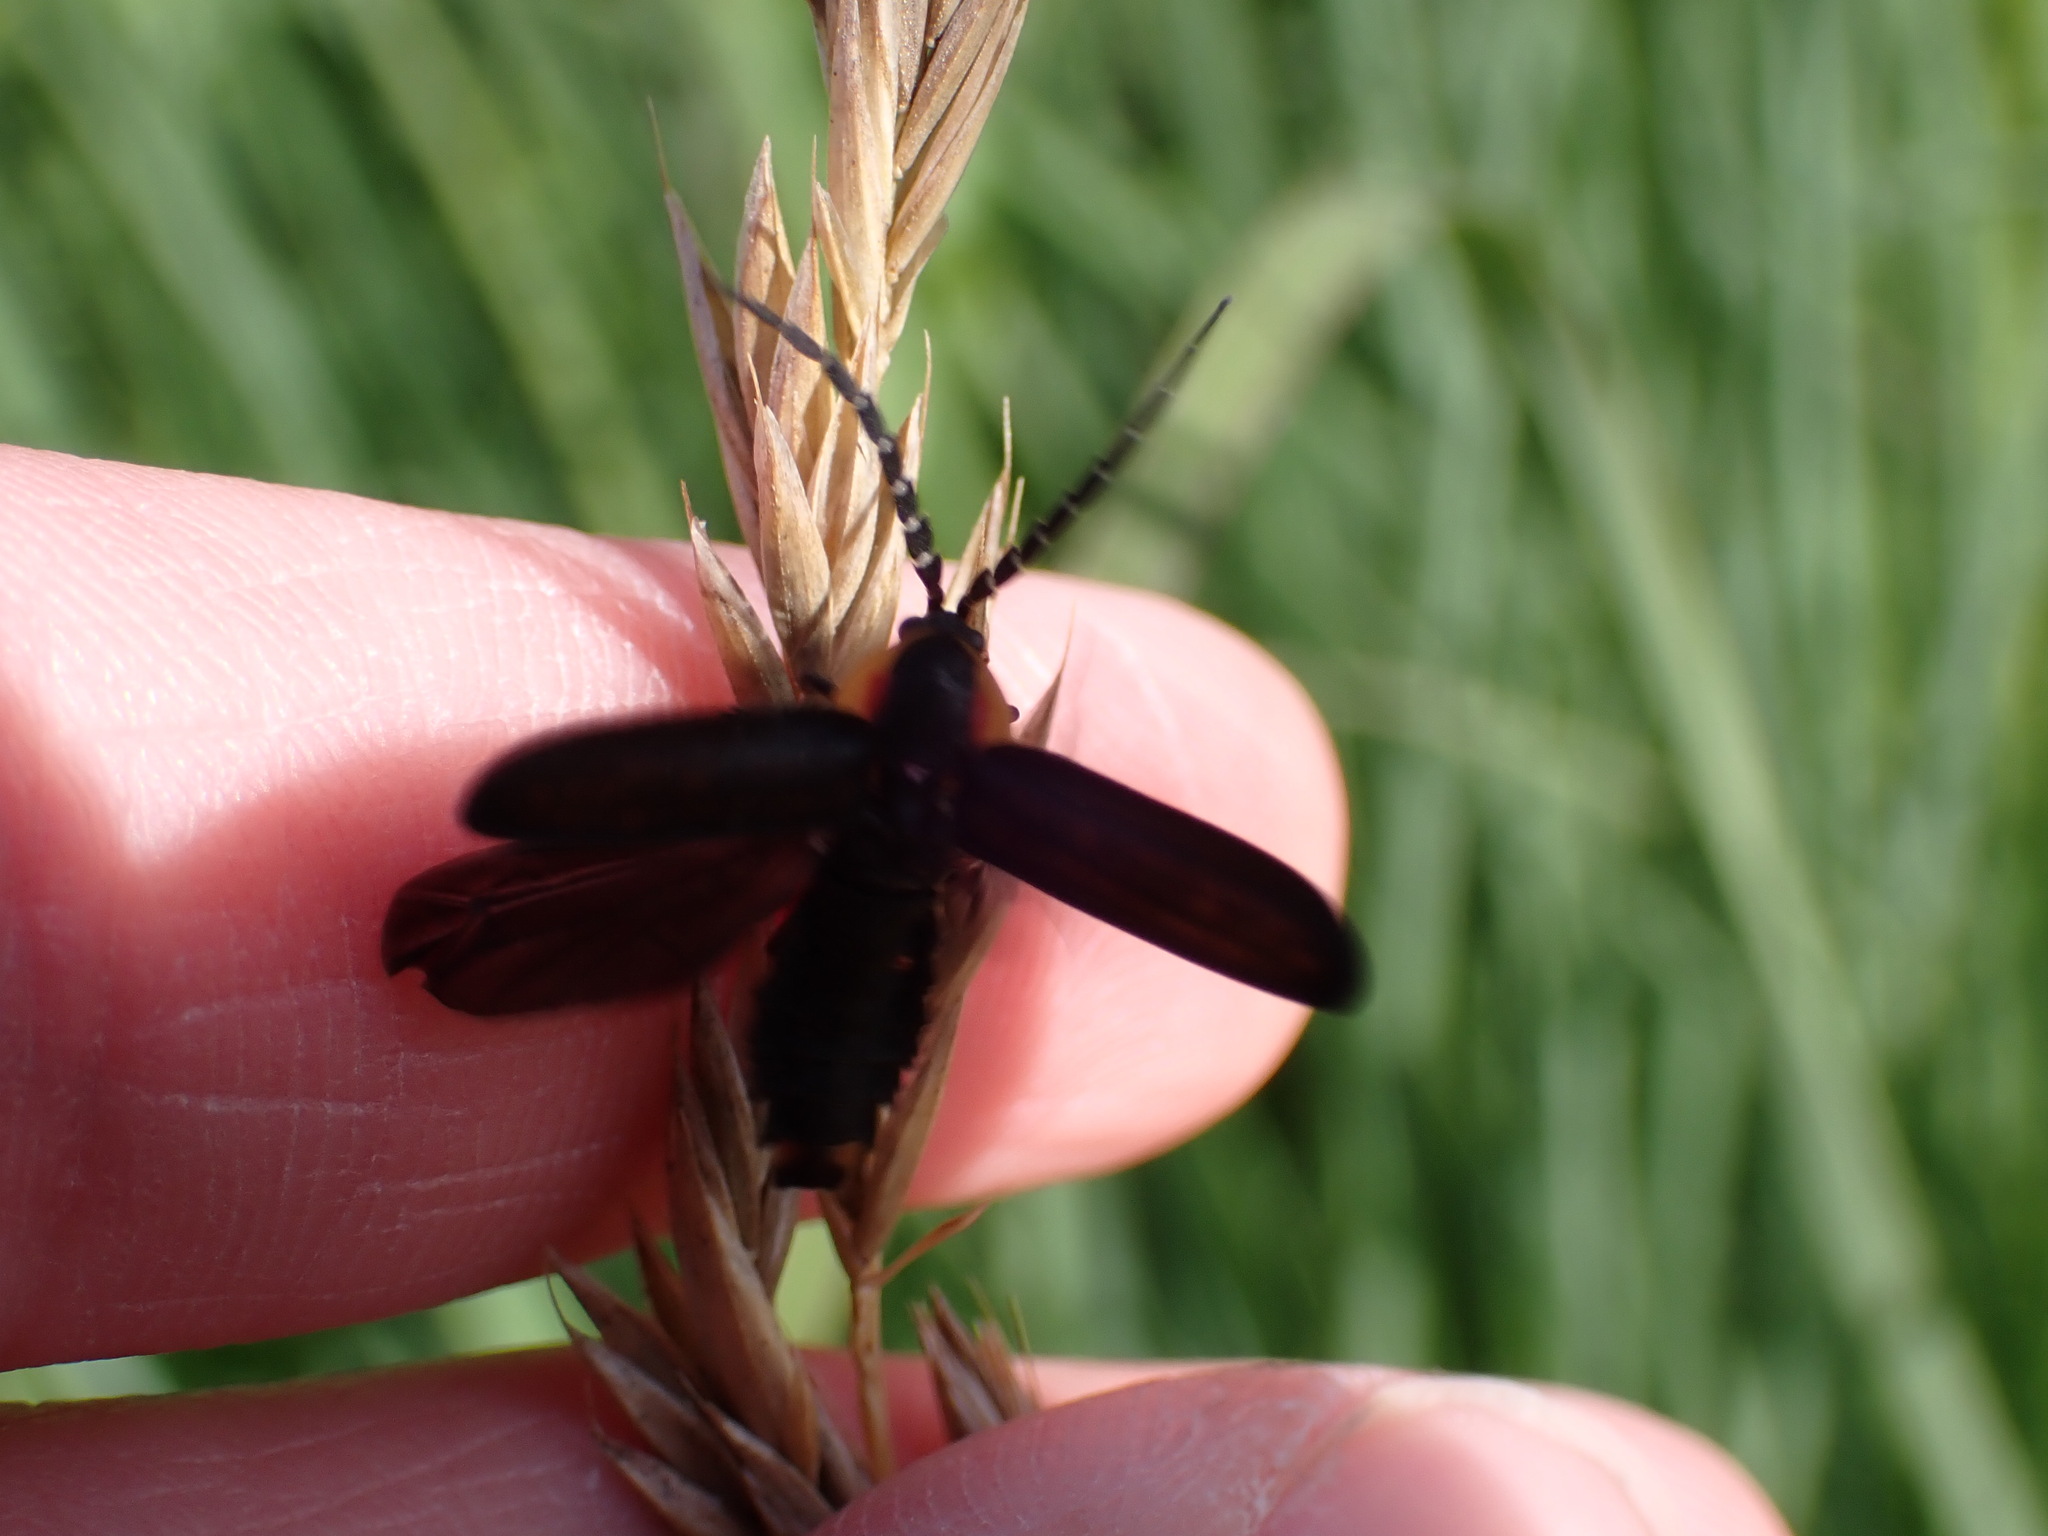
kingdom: Animalia
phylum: Arthropoda
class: Insecta
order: Coleoptera
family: Lampyridae
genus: Lucidota
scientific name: Lucidota atra
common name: Black firefly
